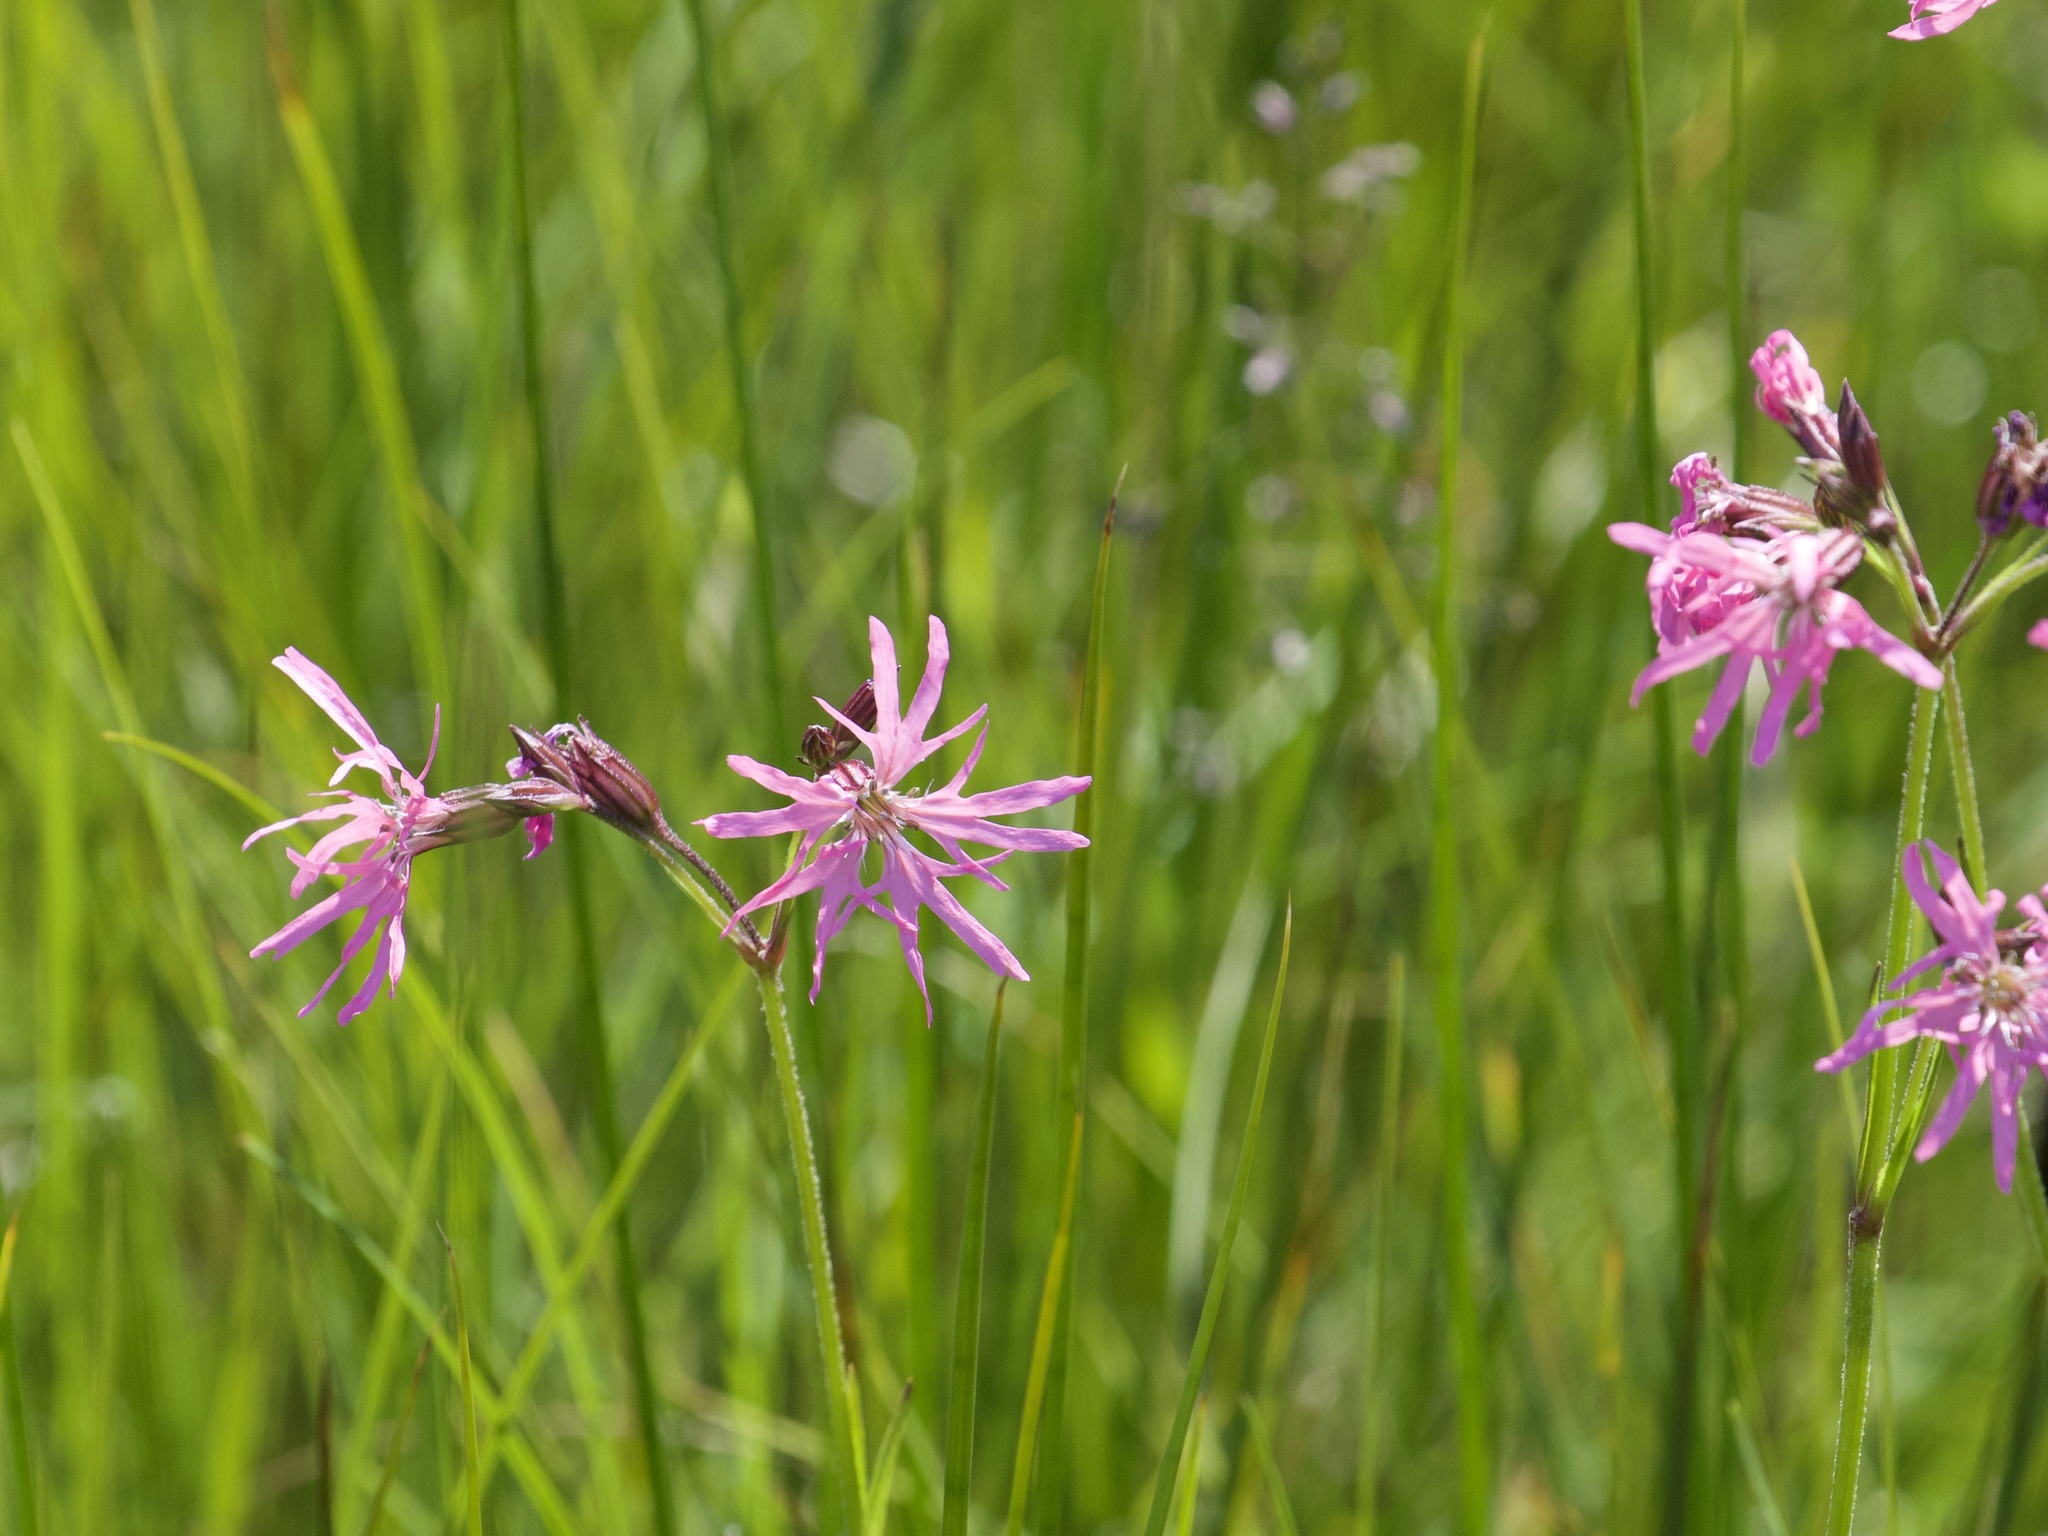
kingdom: Plantae
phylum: Tracheophyta
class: Magnoliopsida
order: Caryophyllales
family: Caryophyllaceae
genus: Silene
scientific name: Silene flos-cuculi
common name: Ragged-robin
